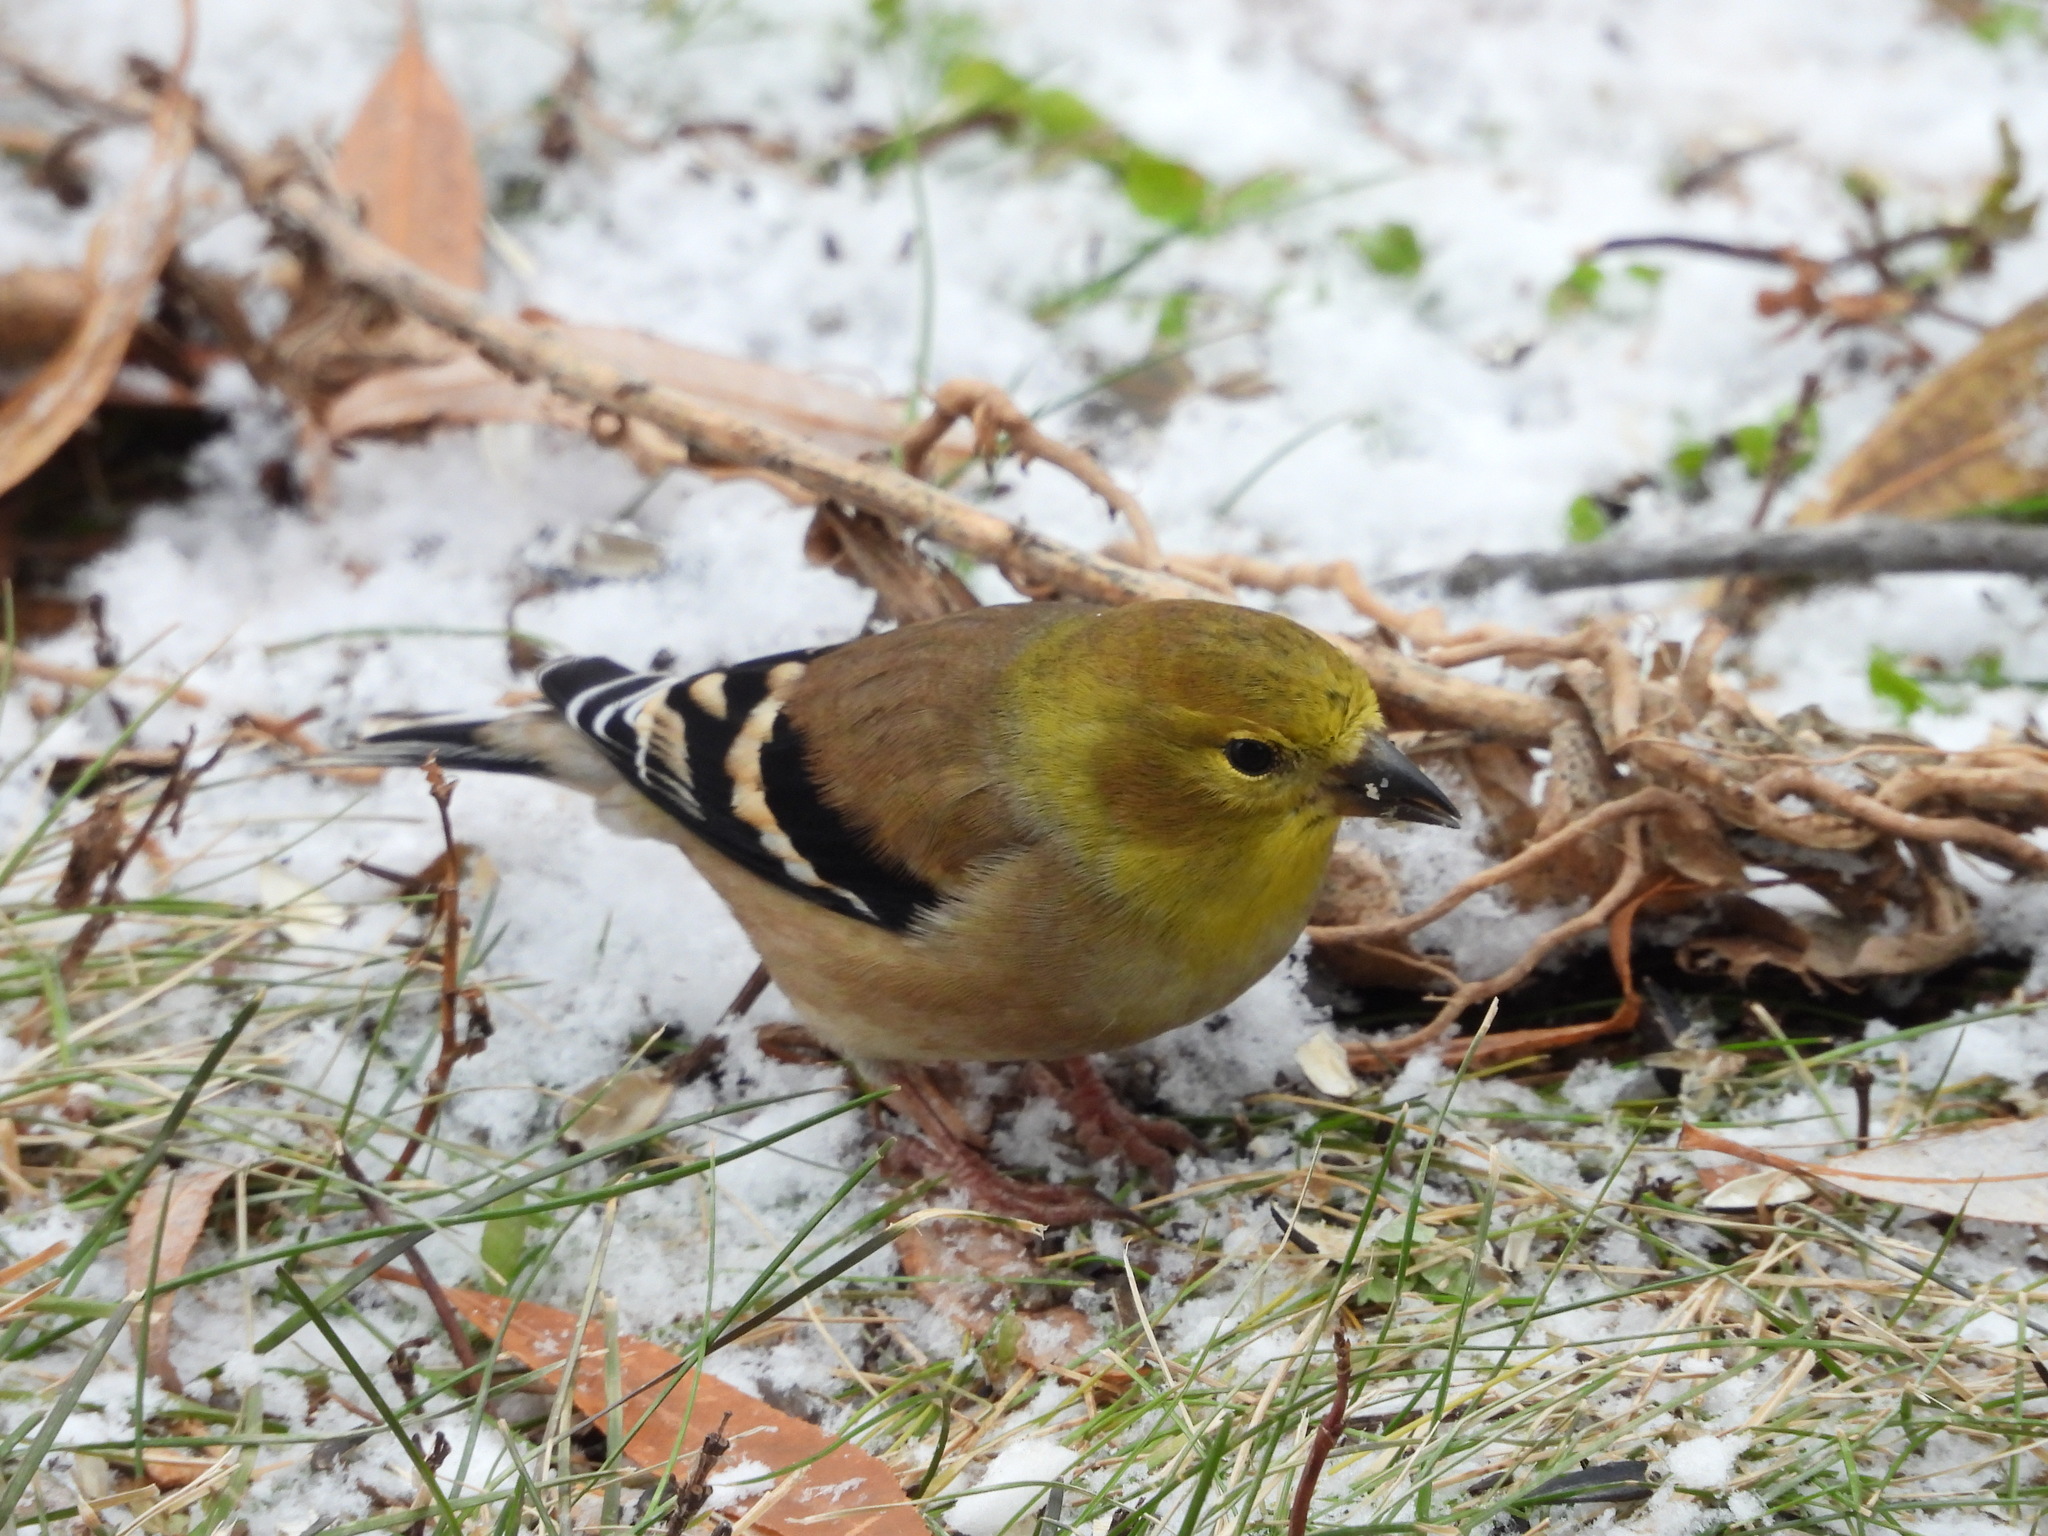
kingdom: Animalia
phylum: Chordata
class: Aves
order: Passeriformes
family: Fringillidae
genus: Spinus
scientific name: Spinus tristis
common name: American goldfinch
